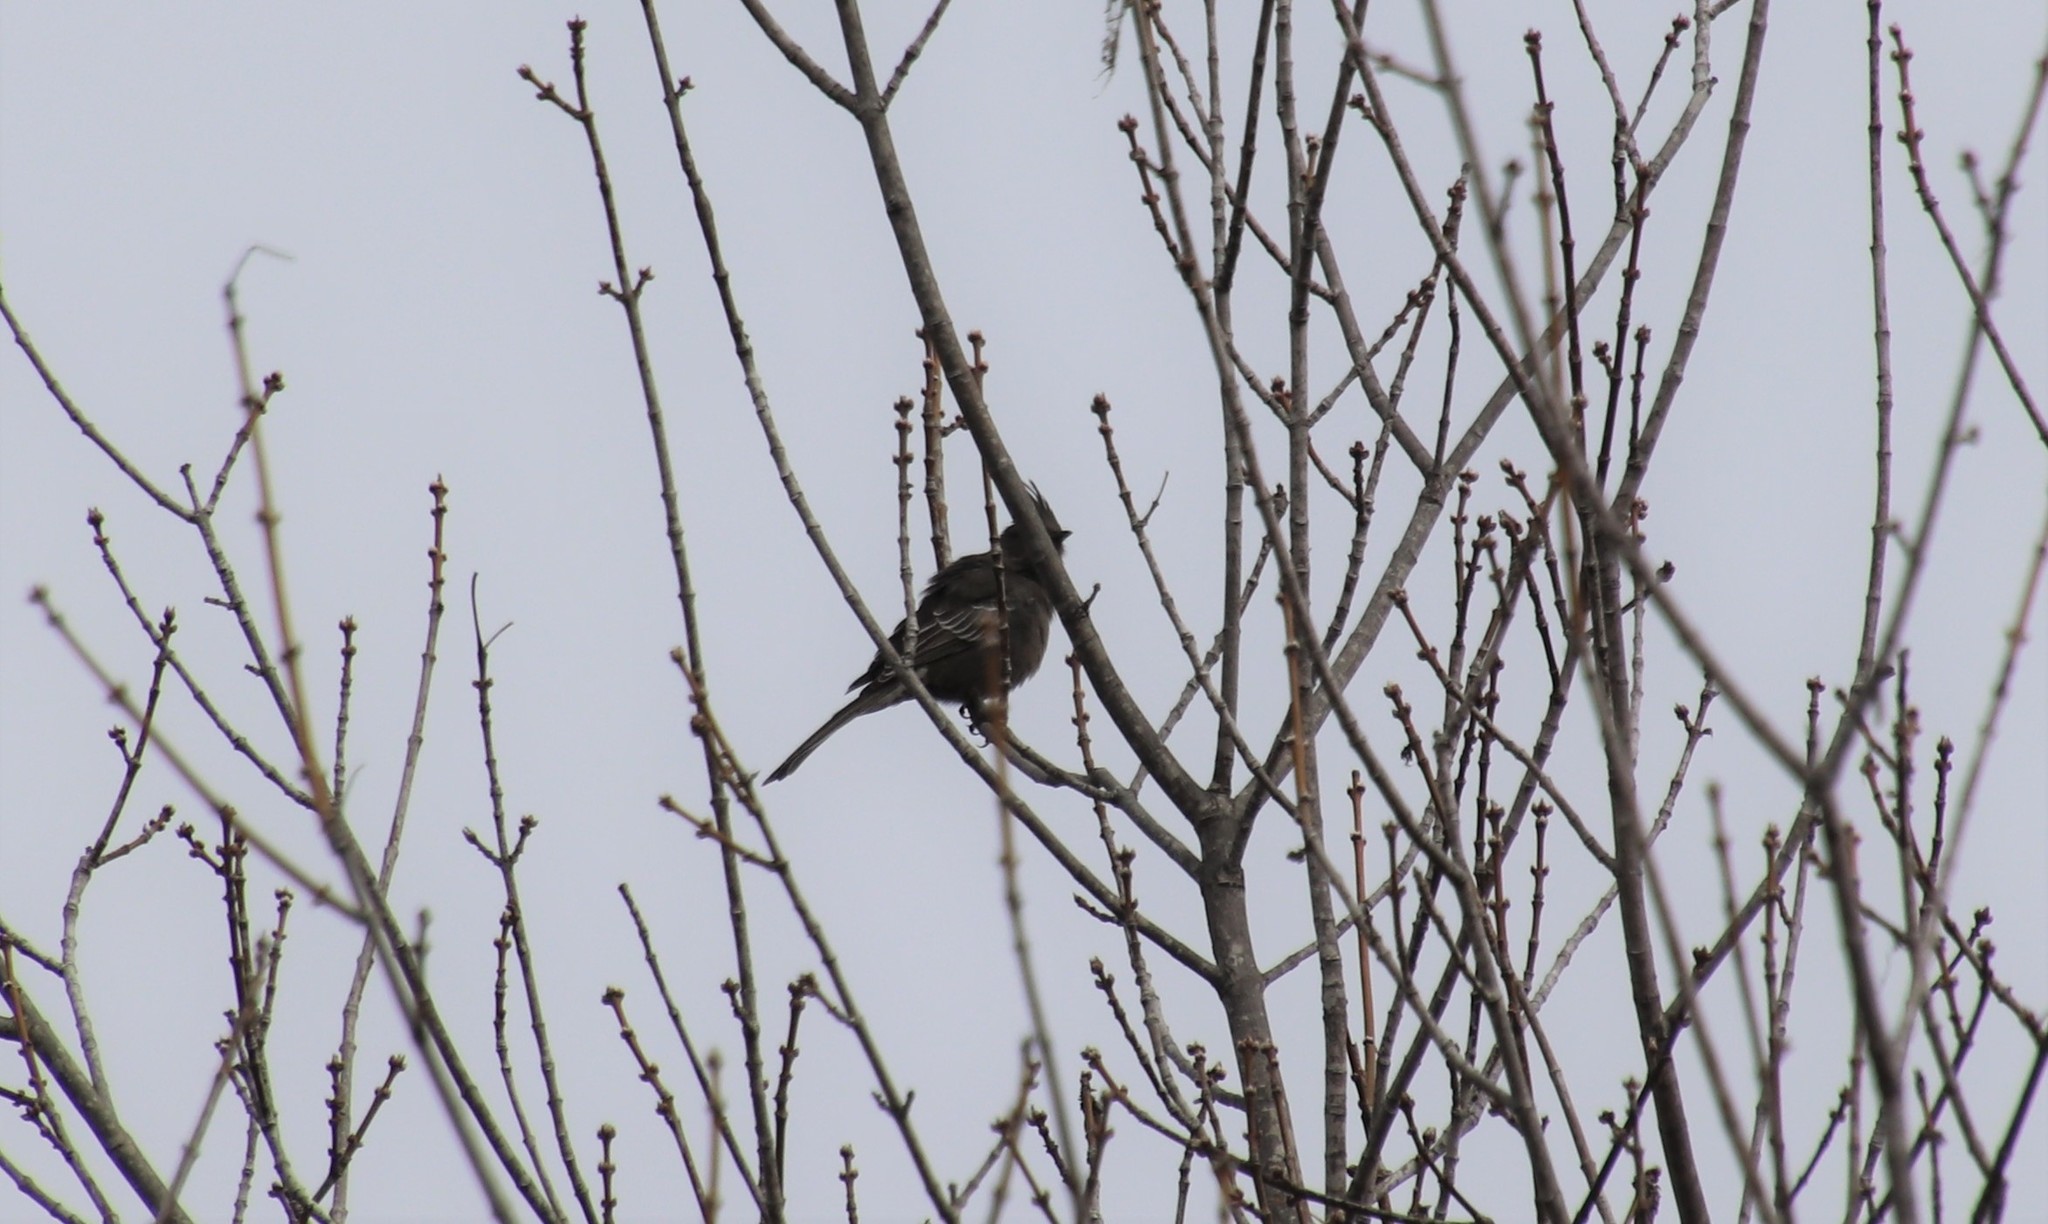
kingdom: Animalia
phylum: Chordata
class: Aves
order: Passeriformes
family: Ptilogonatidae
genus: Phainopepla
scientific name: Phainopepla nitens
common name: Phainopepla
